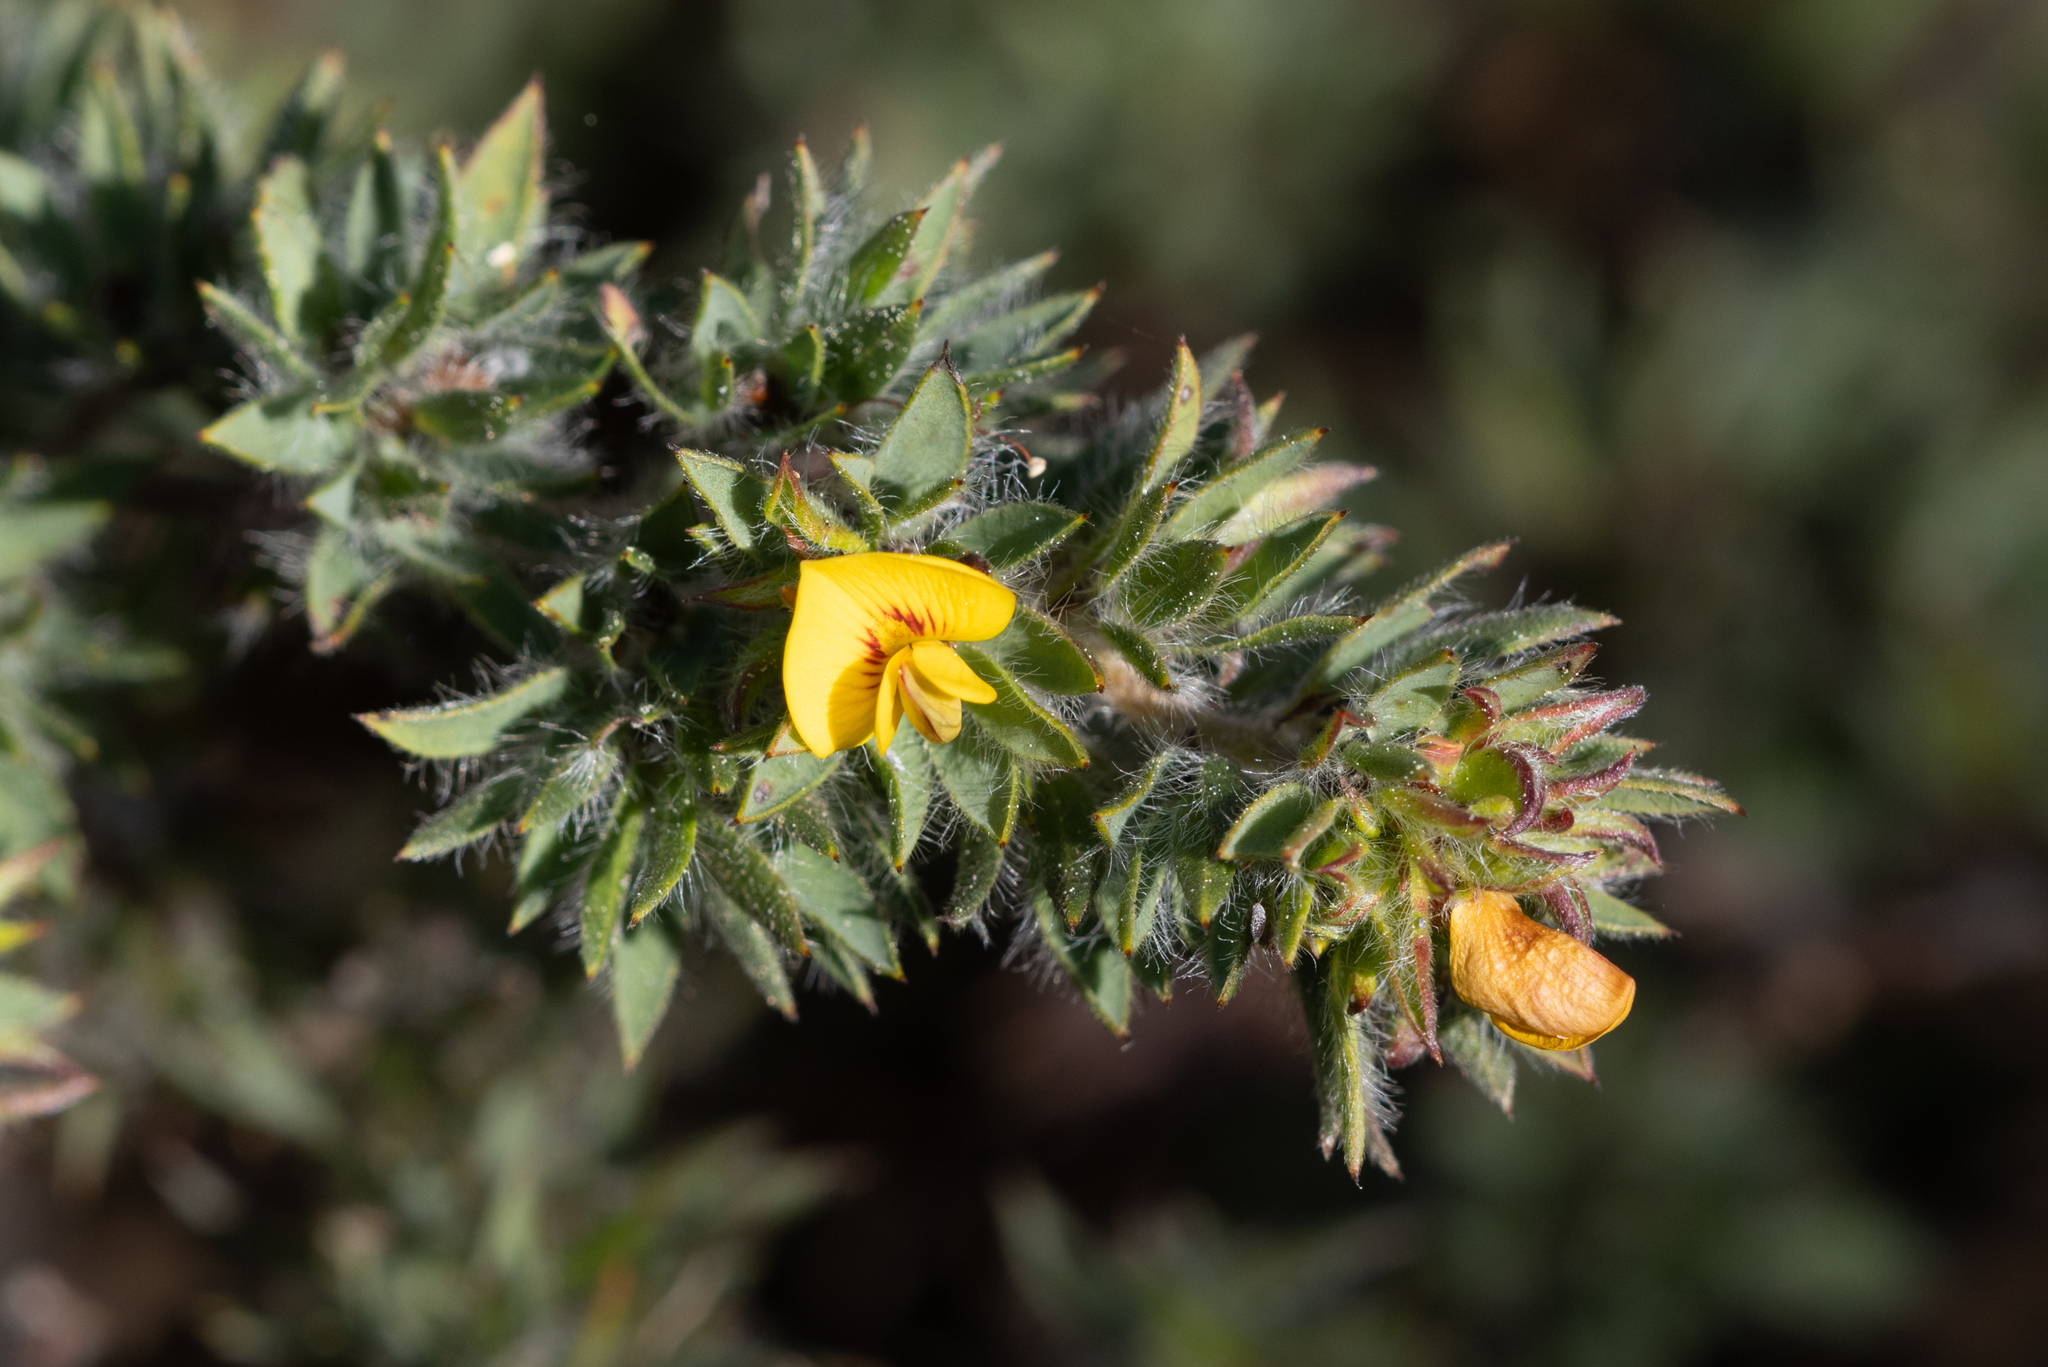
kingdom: Plantae
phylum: Tracheophyta
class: Magnoliopsida
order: Fabales
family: Fabaceae
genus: Pultenaea
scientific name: Pultenaea involucrata
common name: Mount lofty bush-pea
